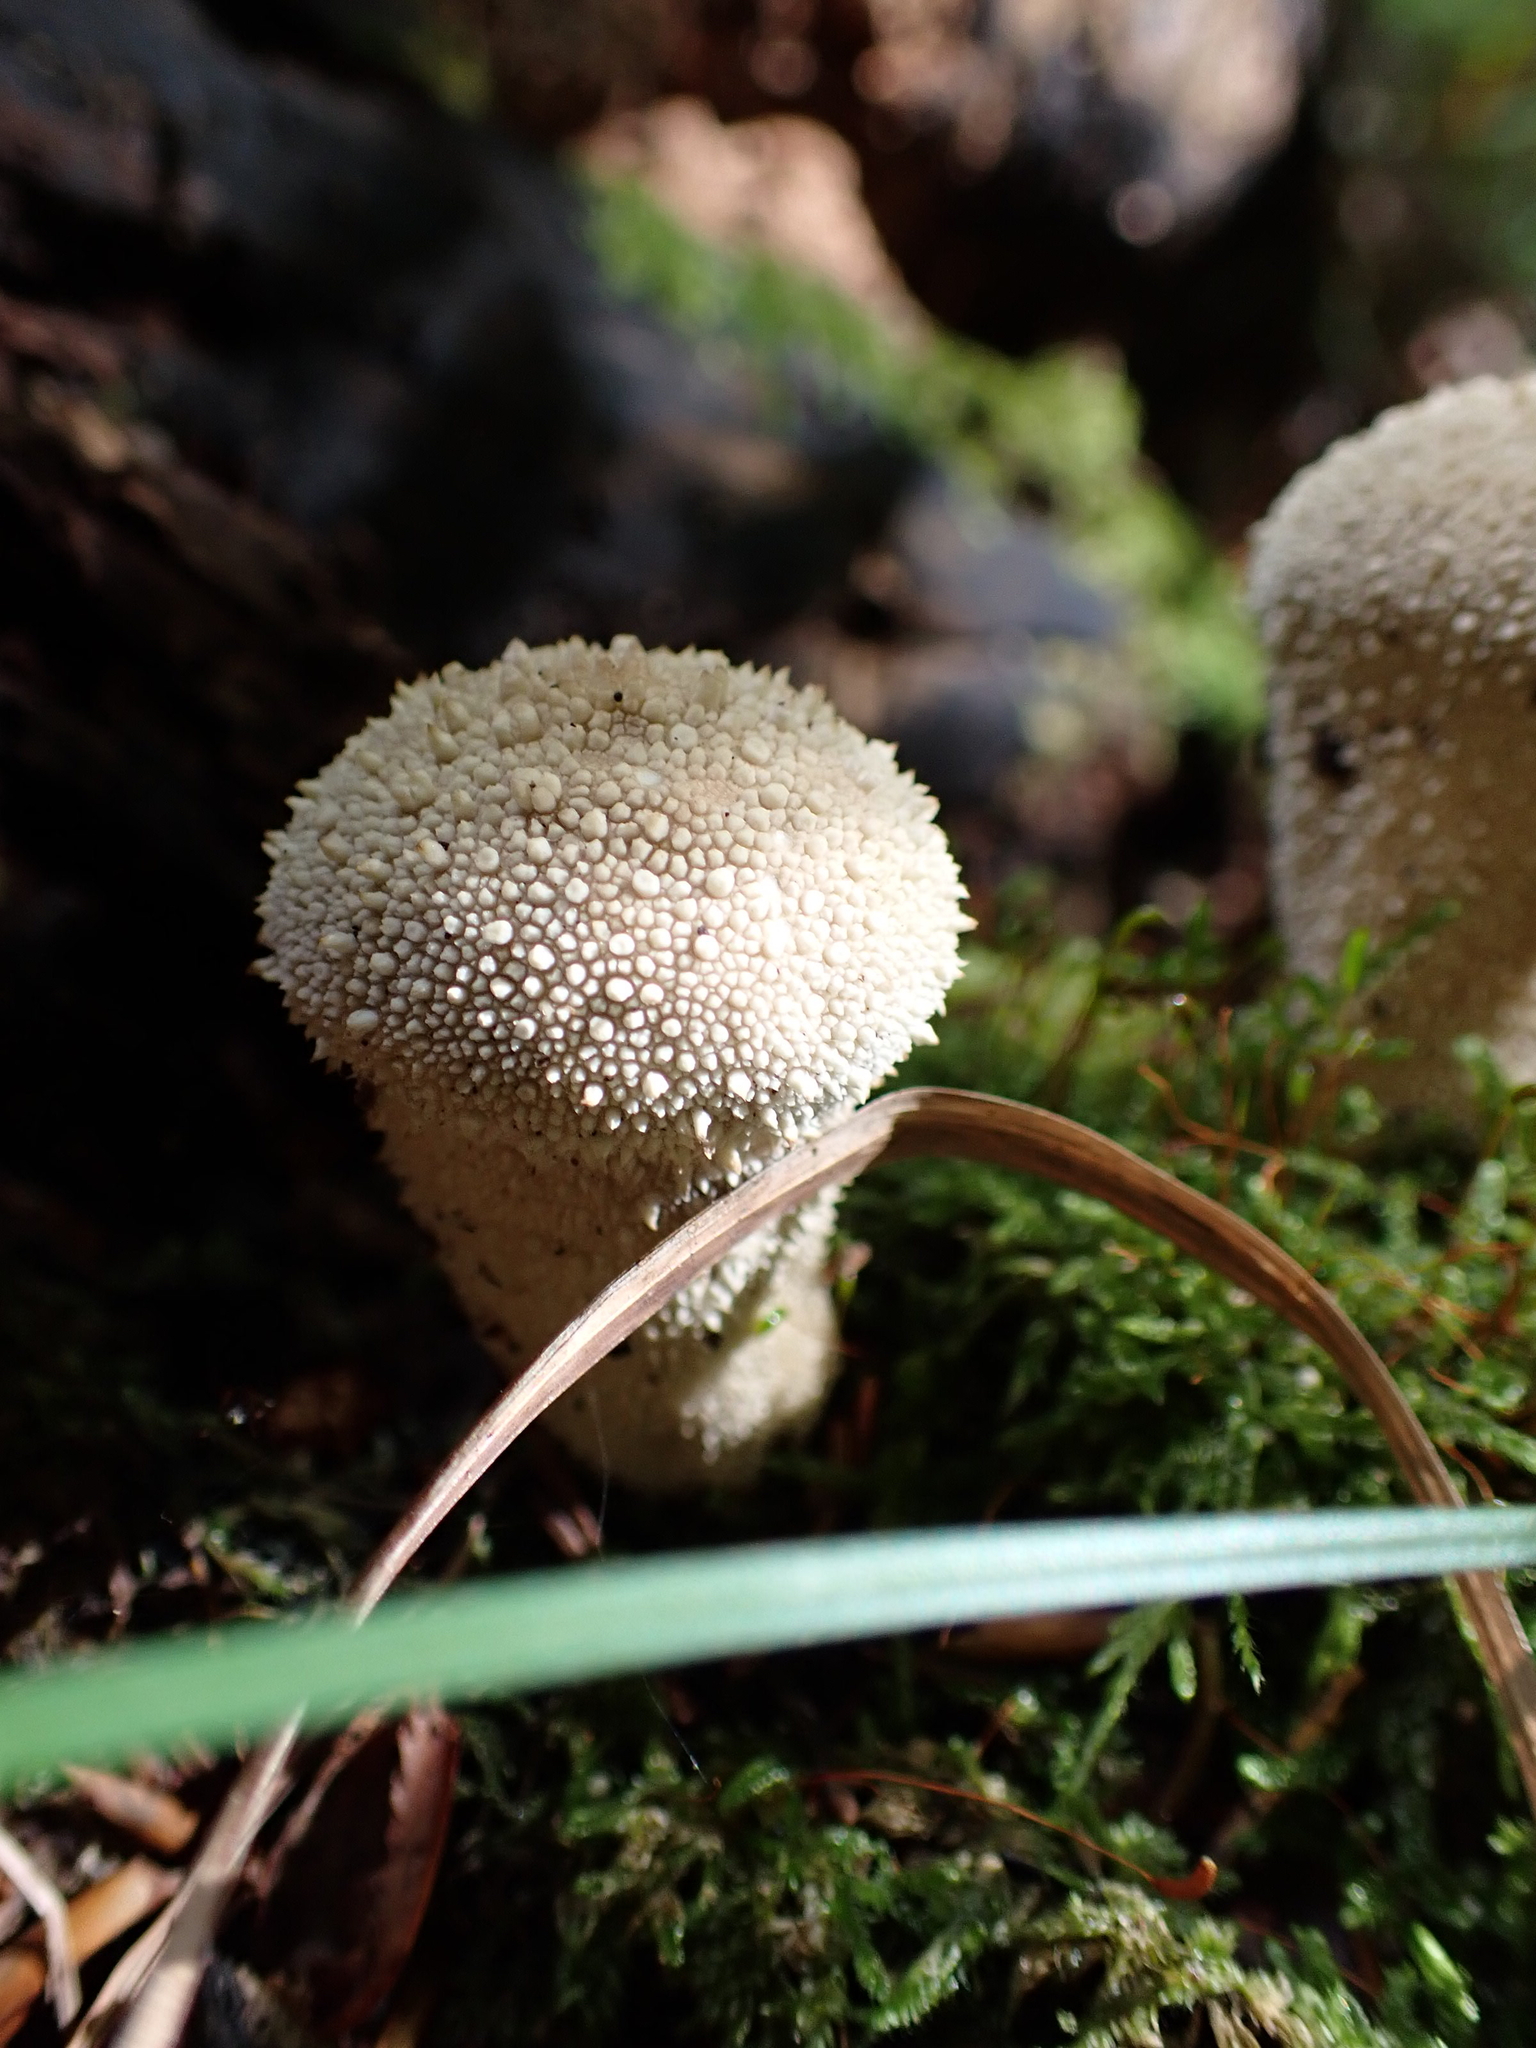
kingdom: Fungi
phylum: Basidiomycota
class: Agaricomycetes
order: Agaricales
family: Lycoperdaceae
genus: Lycoperdon
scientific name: Lycoperdon perlatum
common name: Common puffball
